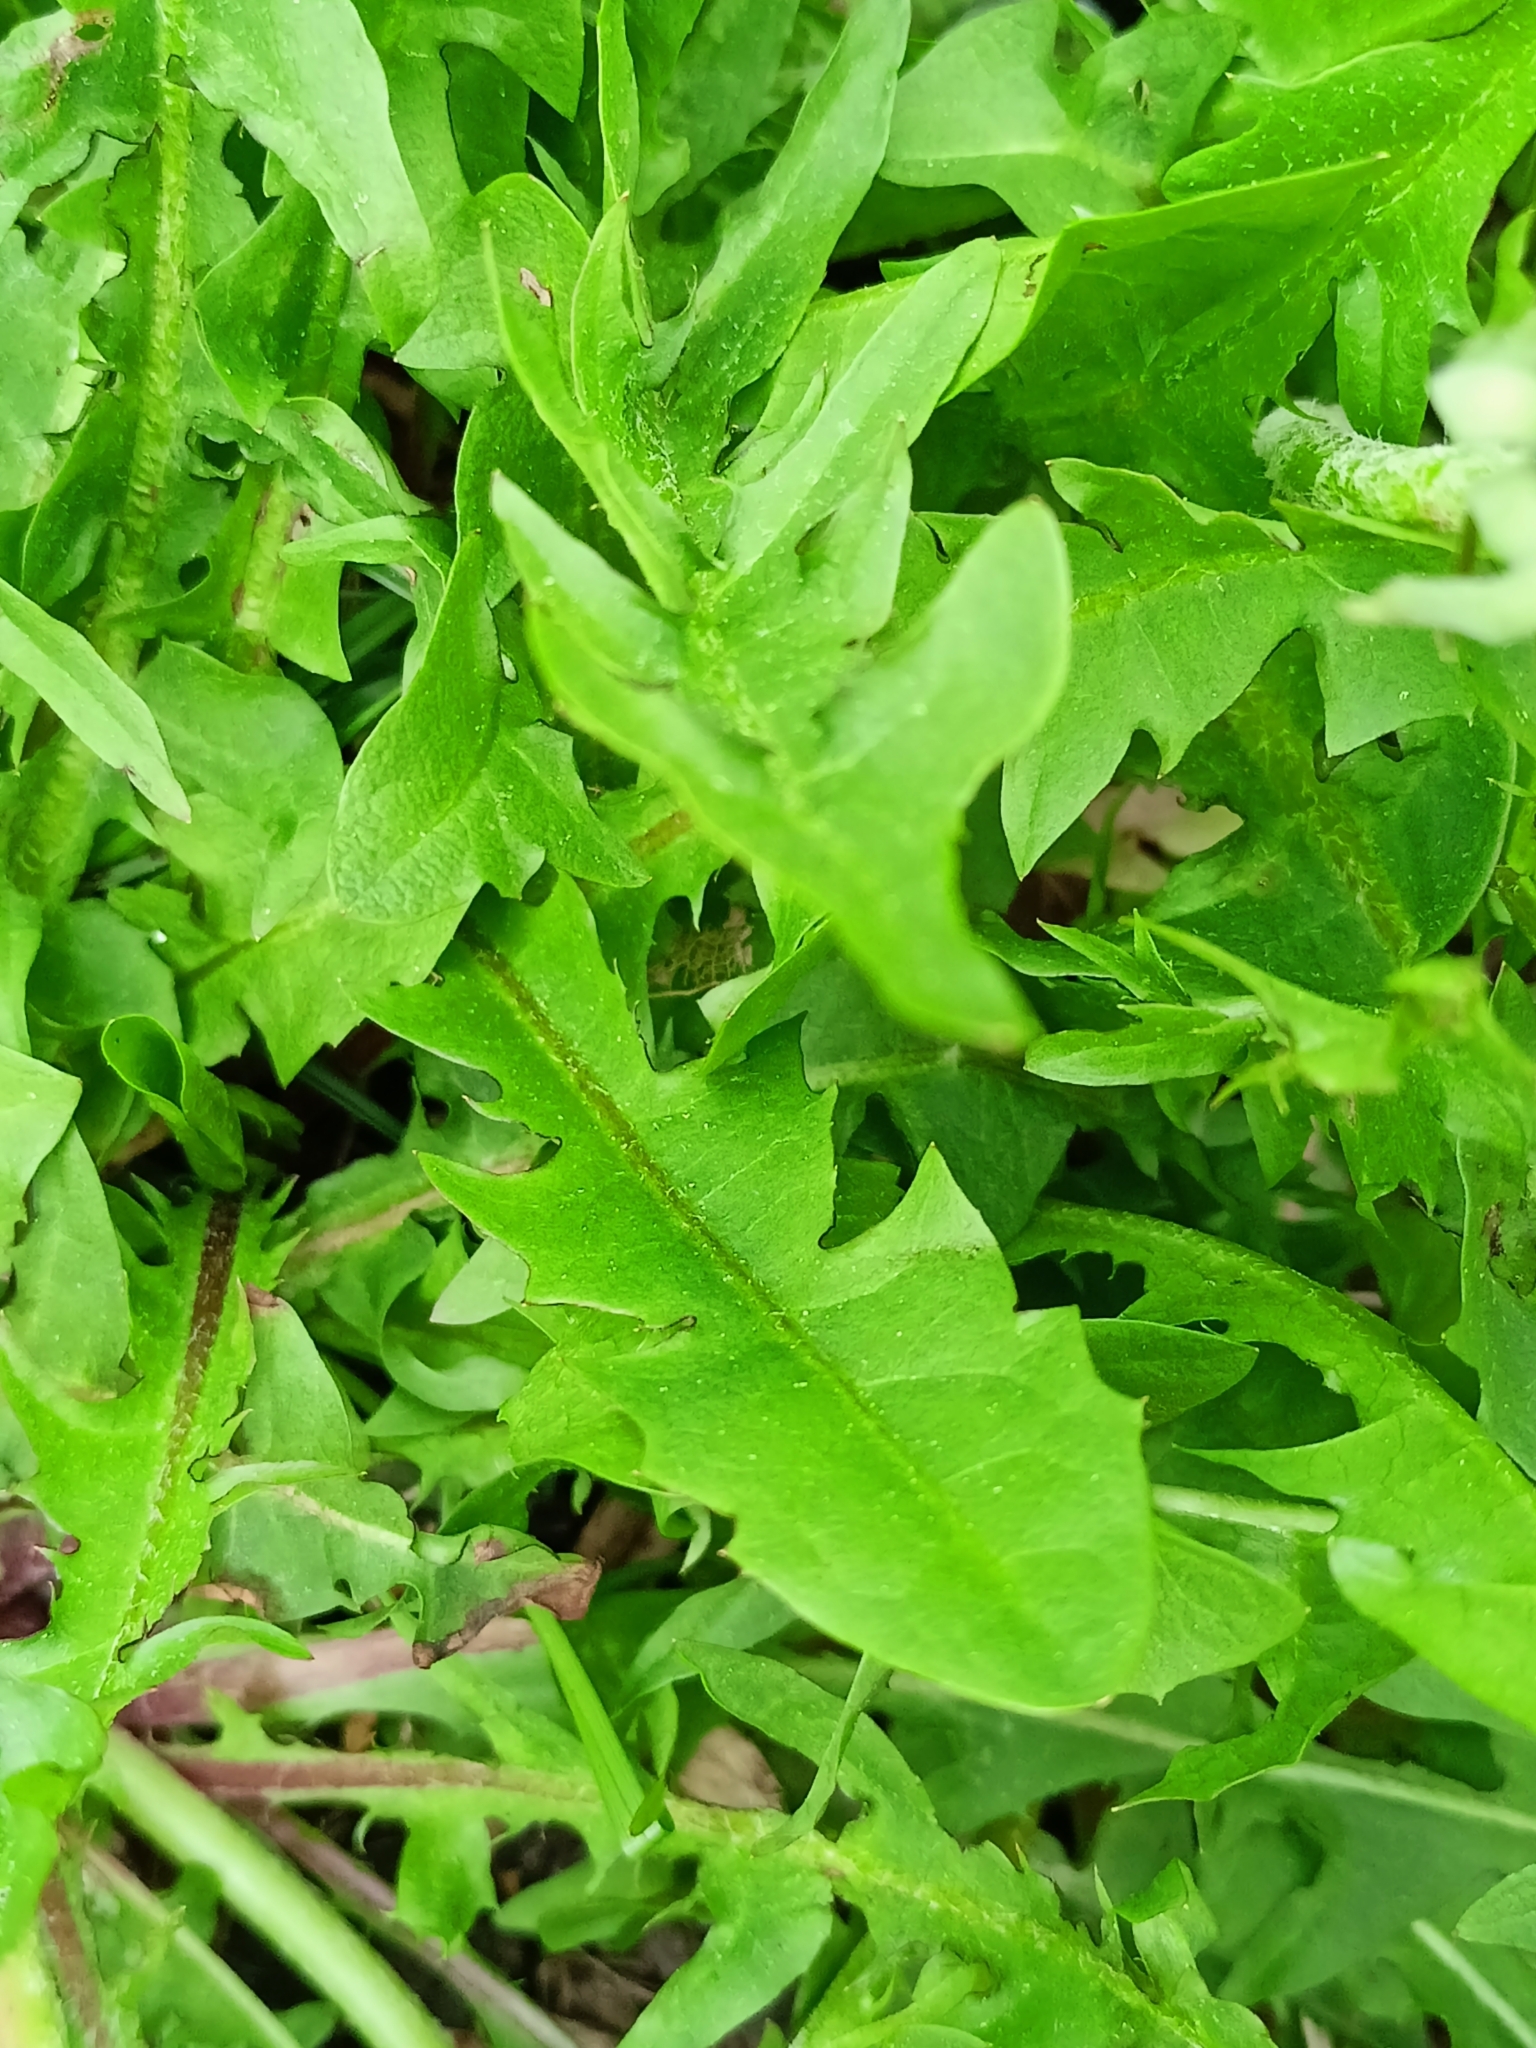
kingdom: Plantae
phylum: Tracheophyta
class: Magnoliopsida
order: Asterales
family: Asteraceae
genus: Taraxacum
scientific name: Taraxacum officinale
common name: Common dandelion
